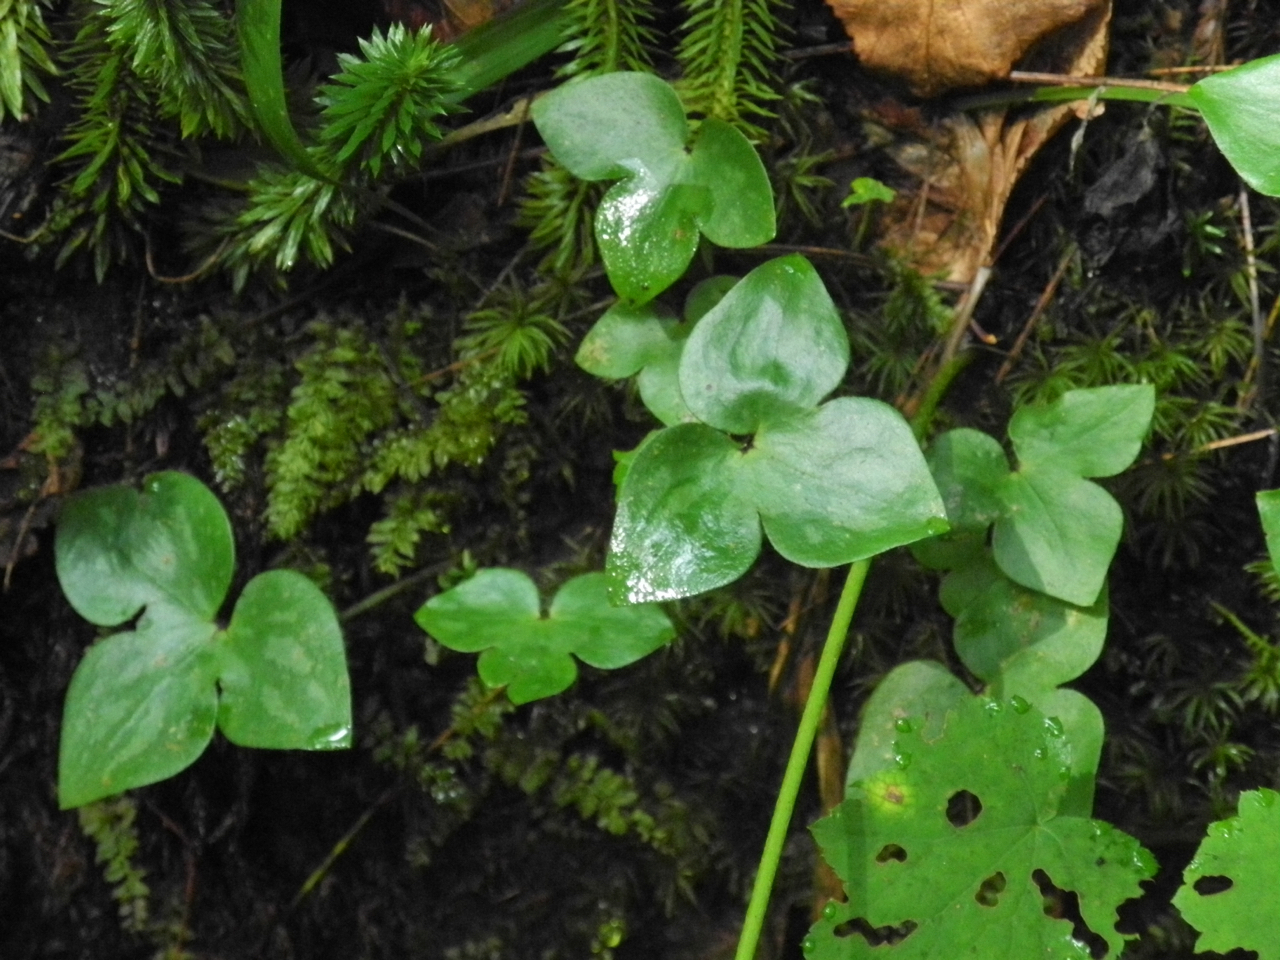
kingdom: Plantae
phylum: Tracheophyta
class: Magnoliopsida
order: Ranunculales
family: Ranunculaceae
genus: Hepatica
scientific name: Hepatica acutiloba
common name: Sharp-lobed hepatica
